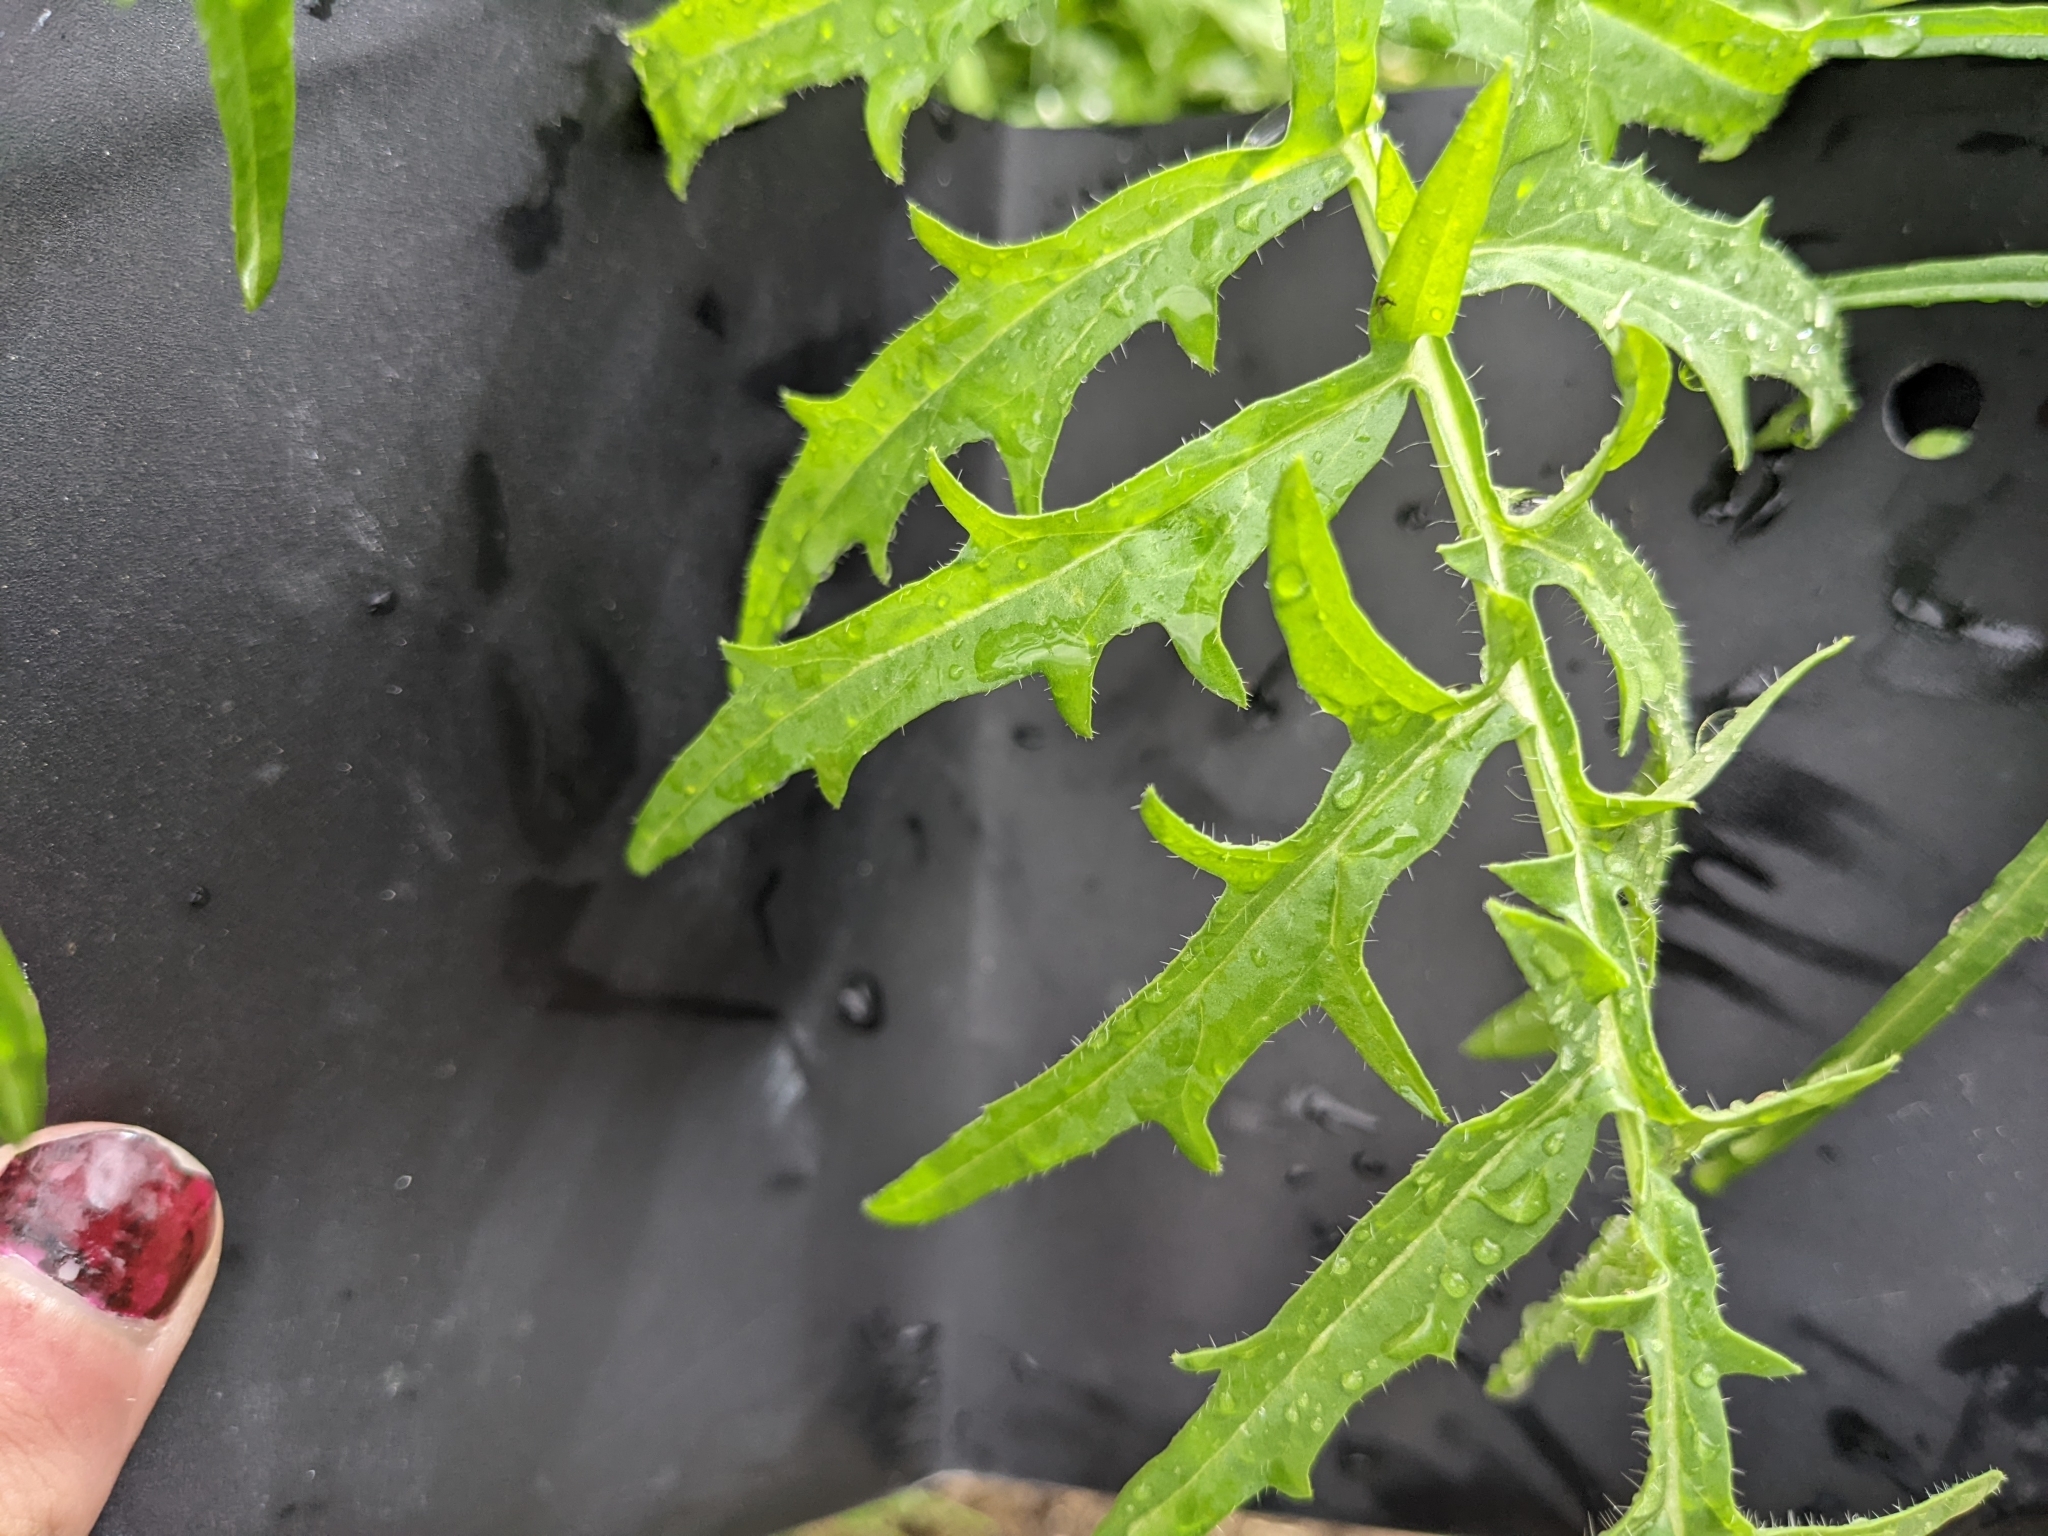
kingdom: Plantae
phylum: Tracheophyta
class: Magnoliopsida
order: Brassicales
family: Brassicaceae
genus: Sisymbrium
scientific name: Sisymbrium altissimum
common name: Tall rocket
